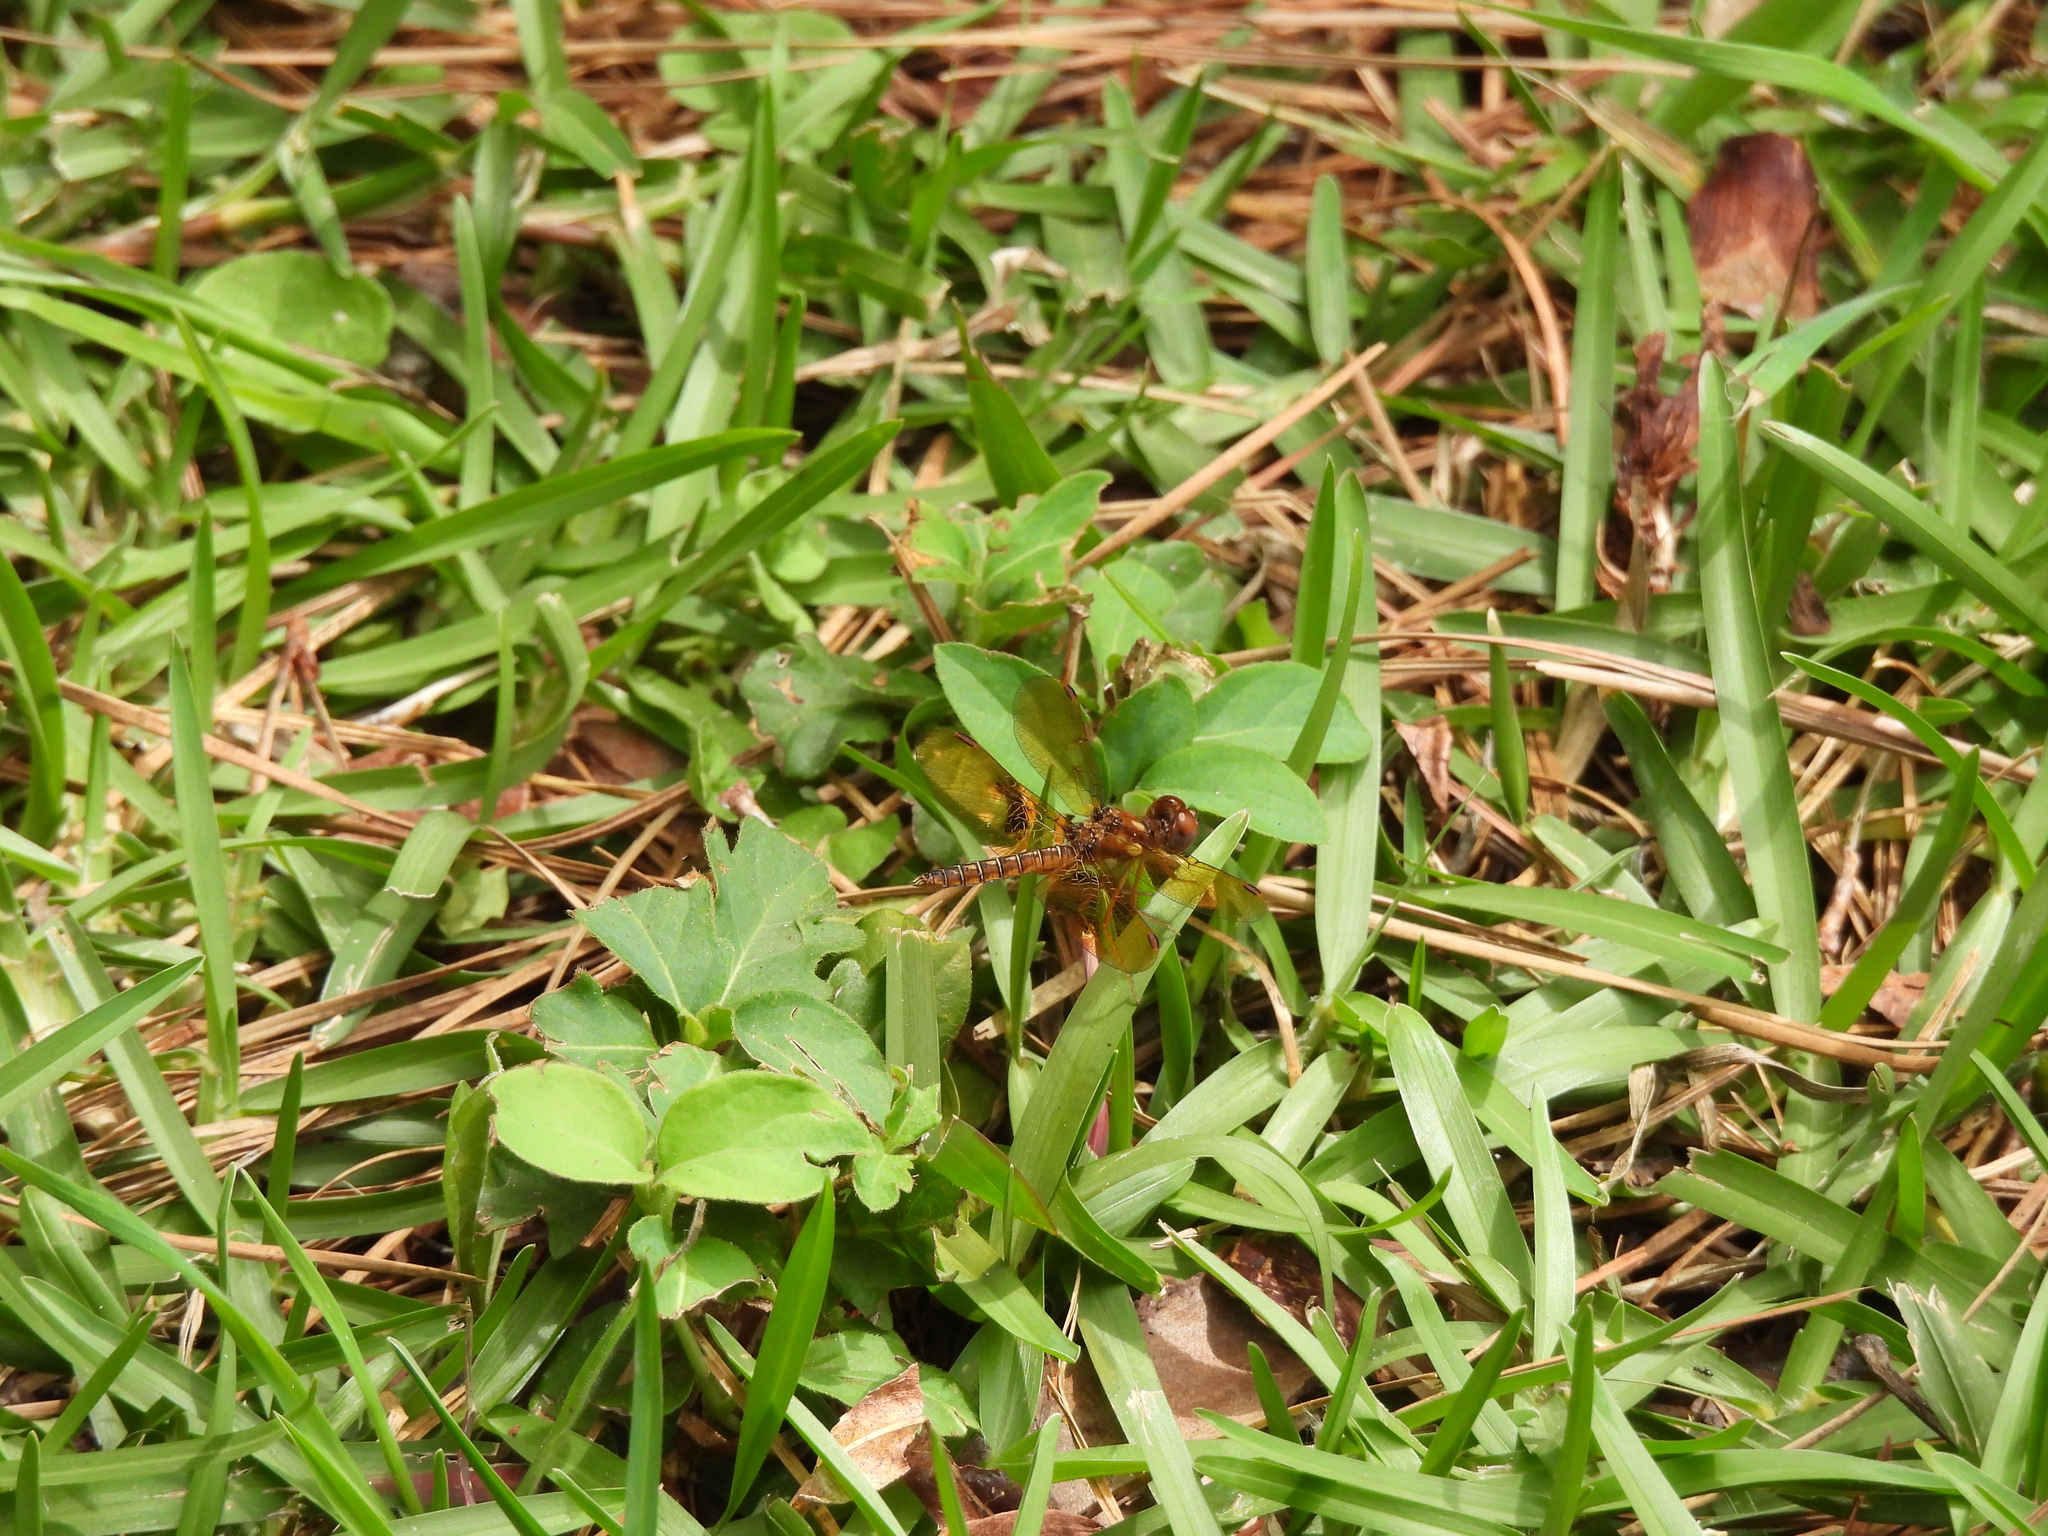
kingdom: Animalia
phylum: Arthropoda
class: Insecta
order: Odonata
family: Libellulidae
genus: Perithemis
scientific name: Perithemis tenera
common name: Eastern amberwing
